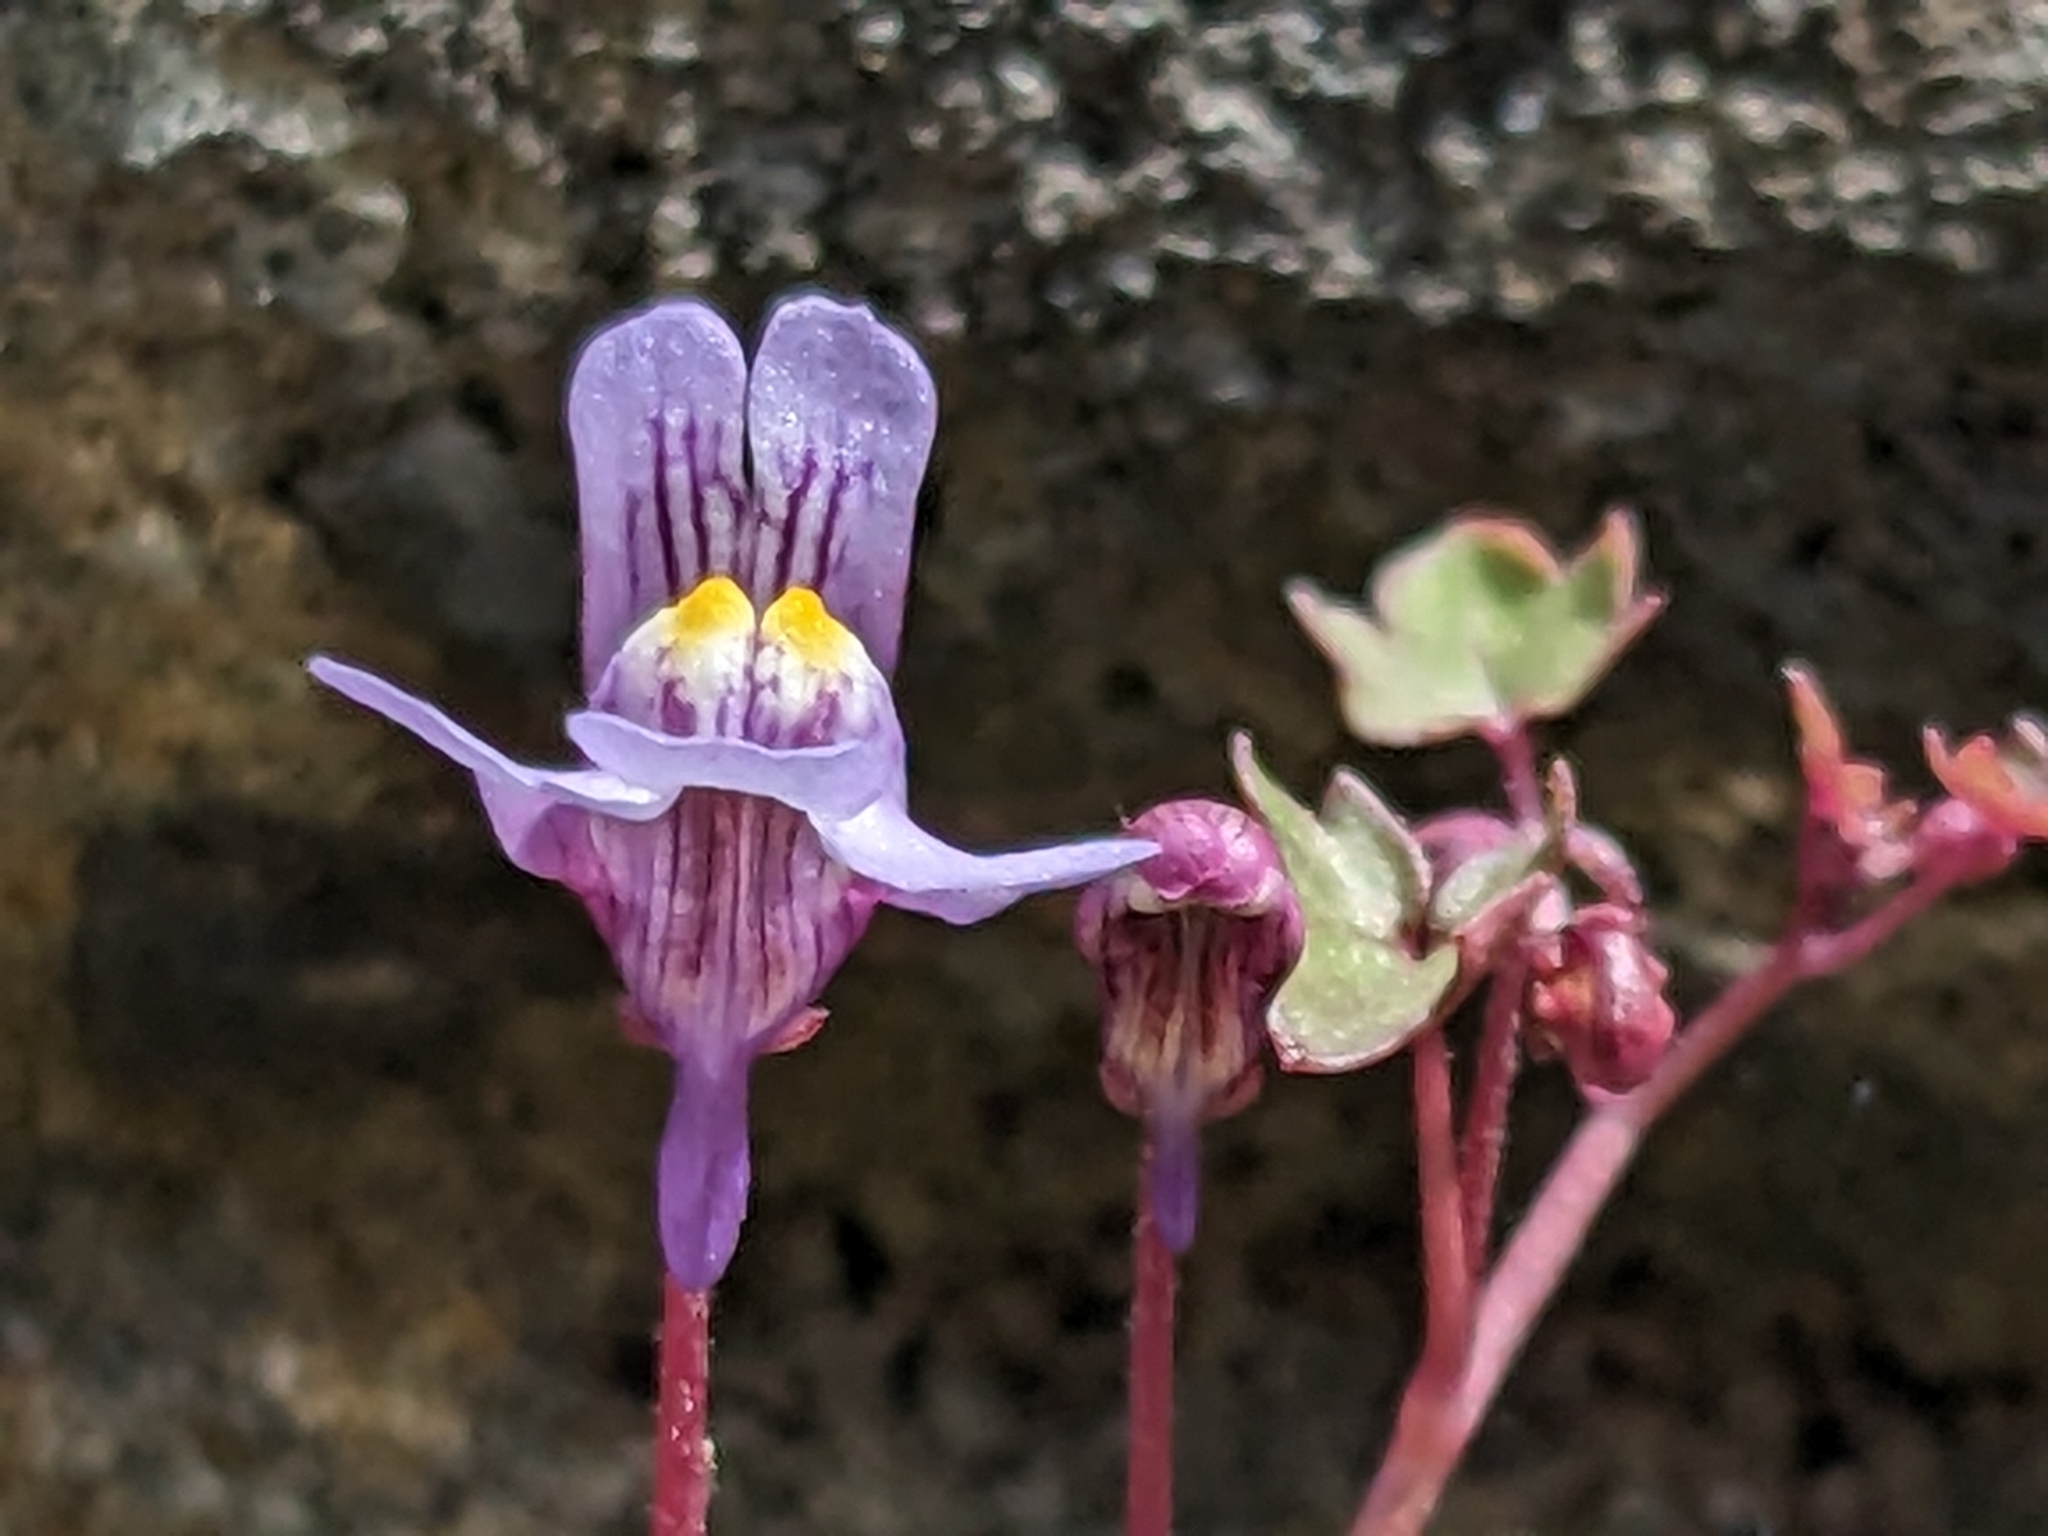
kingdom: Plantae
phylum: Tracheophyta
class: Magnoliopsida
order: Lamiales
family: Plantaginaceae
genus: Cymbalaria
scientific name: Cymbalaria muralis
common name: Ivy-leaved toadflax
